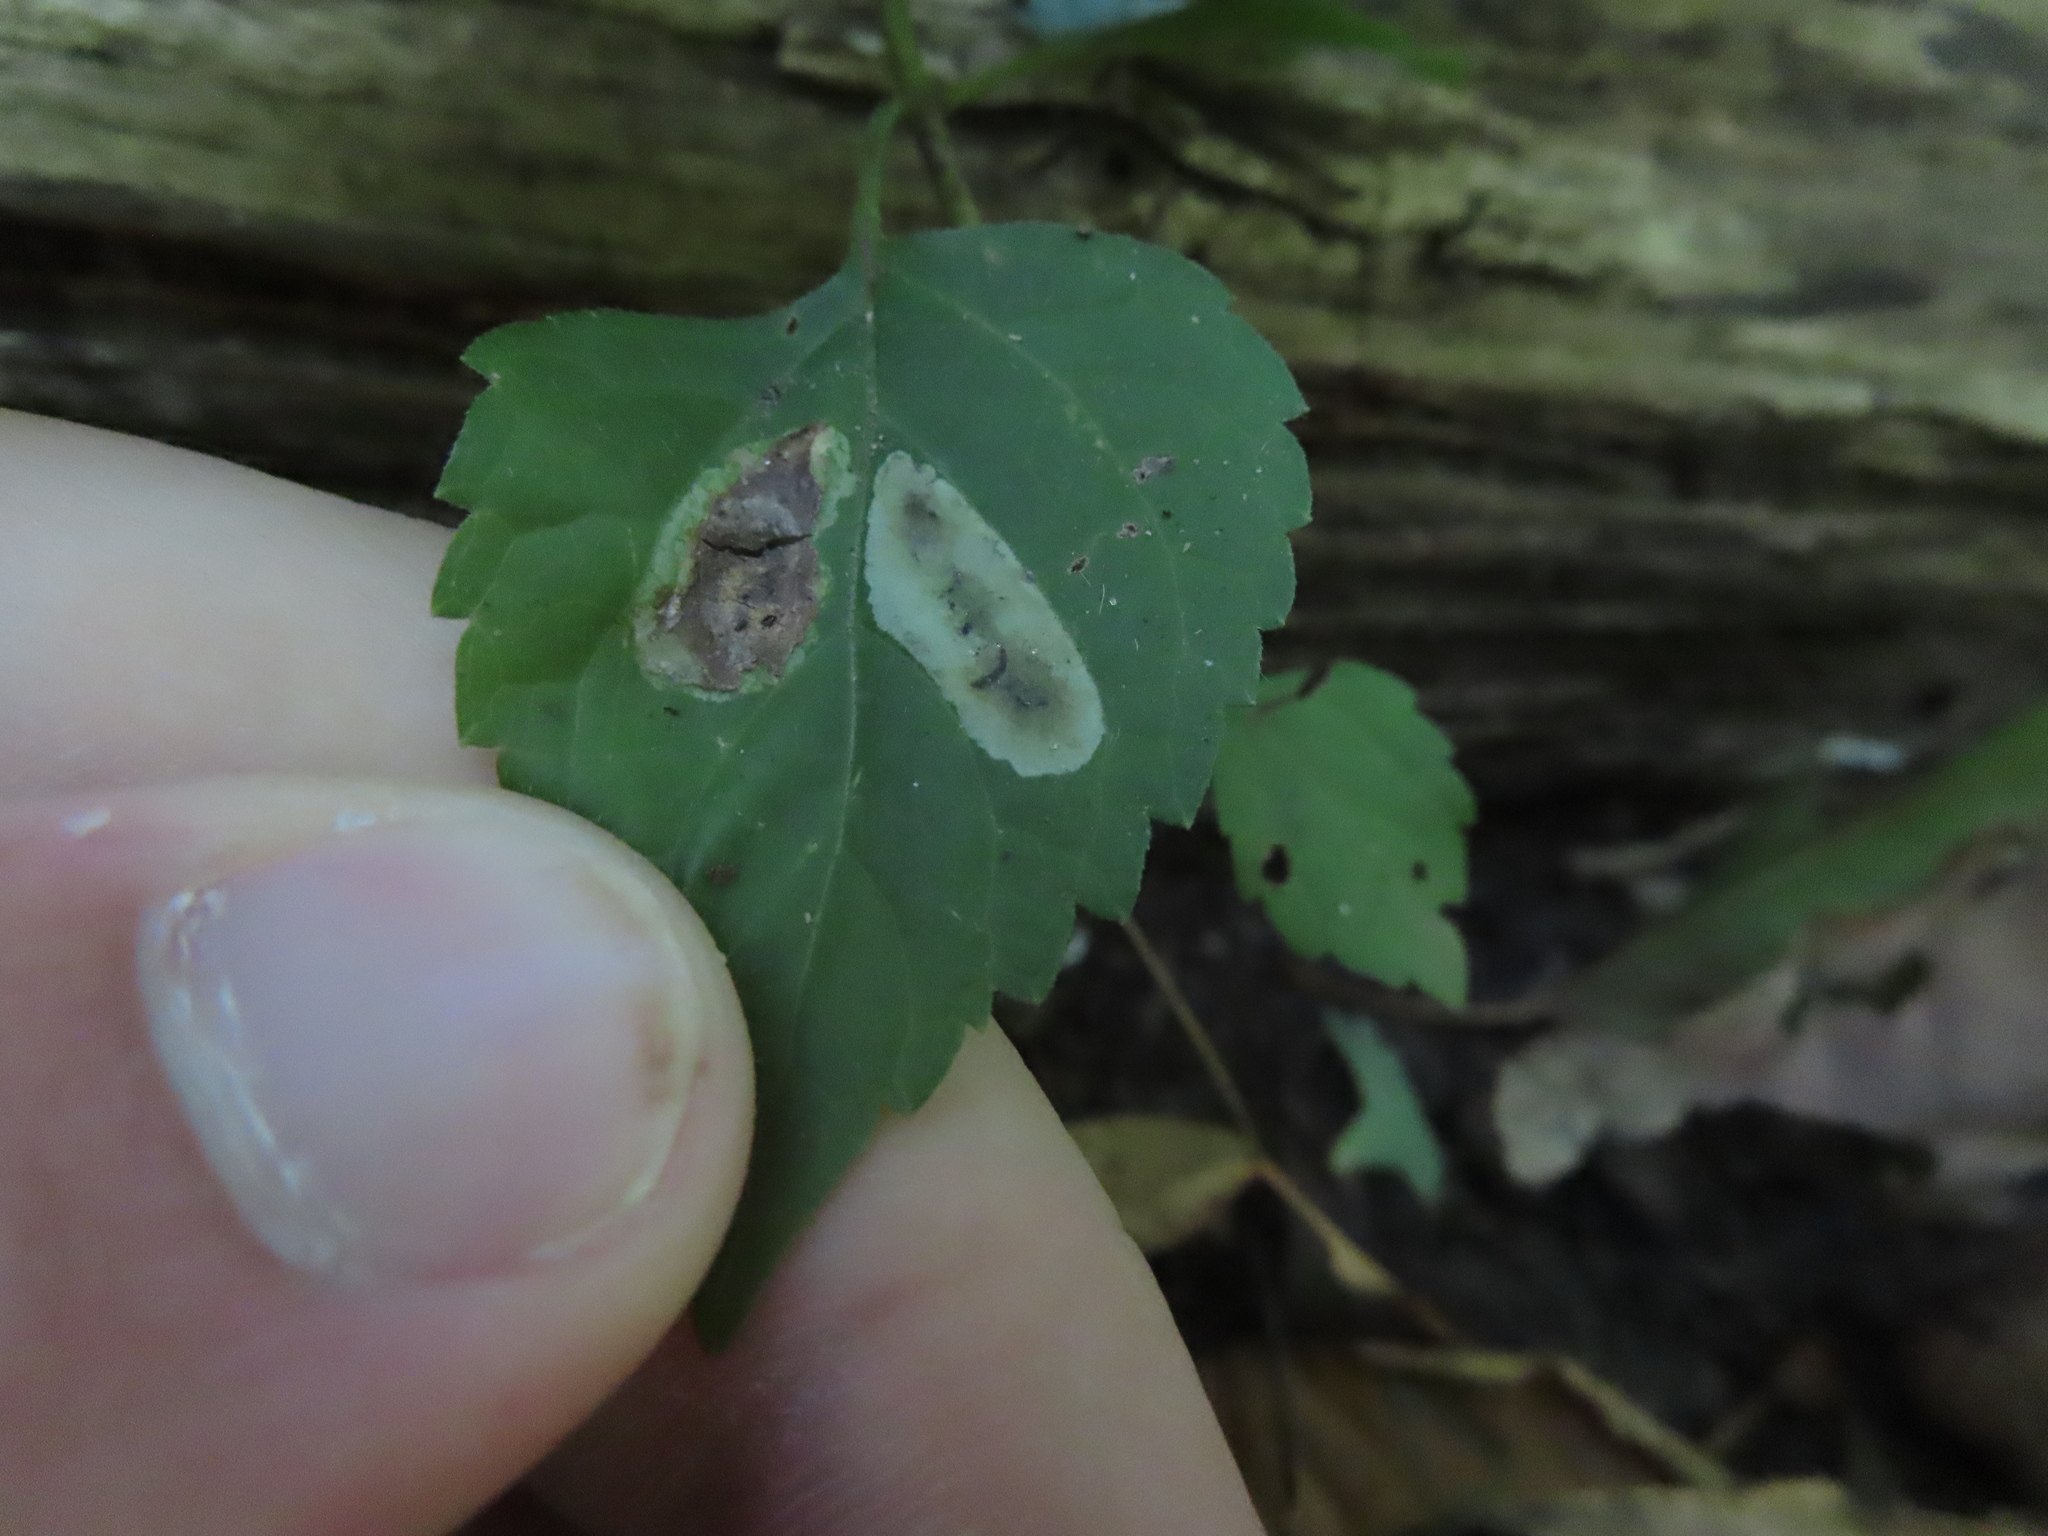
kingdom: Animalia
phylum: Arthropoda
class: Insecta
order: Diptera
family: Agromyzidae
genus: Calycomyza
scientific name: Calycomyza
